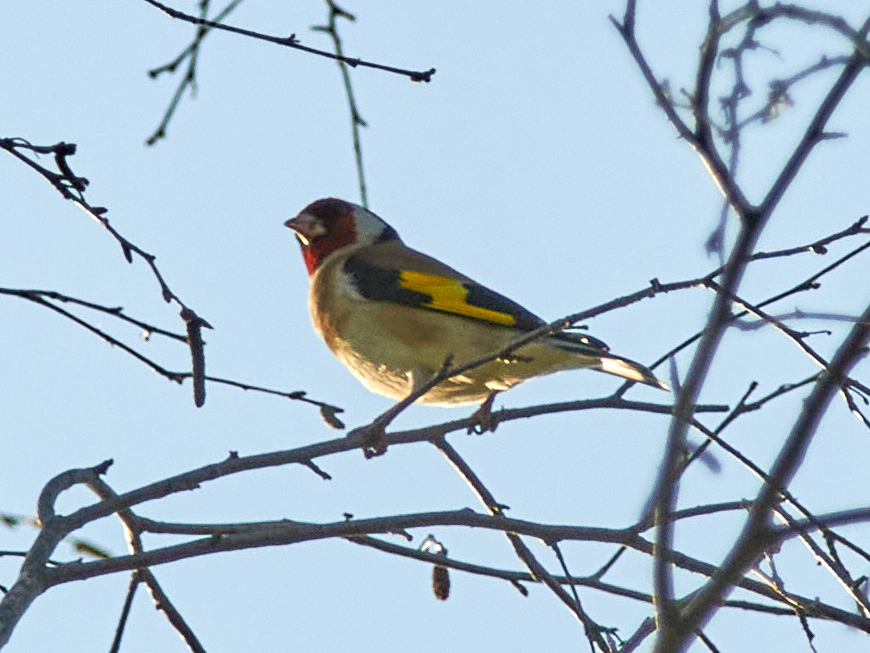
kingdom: Animalia
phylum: Chordata
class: Aves
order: Passeriformes
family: Fringillidae
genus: Carduelis
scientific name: Carduelis carduelis
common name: European goldfinch
